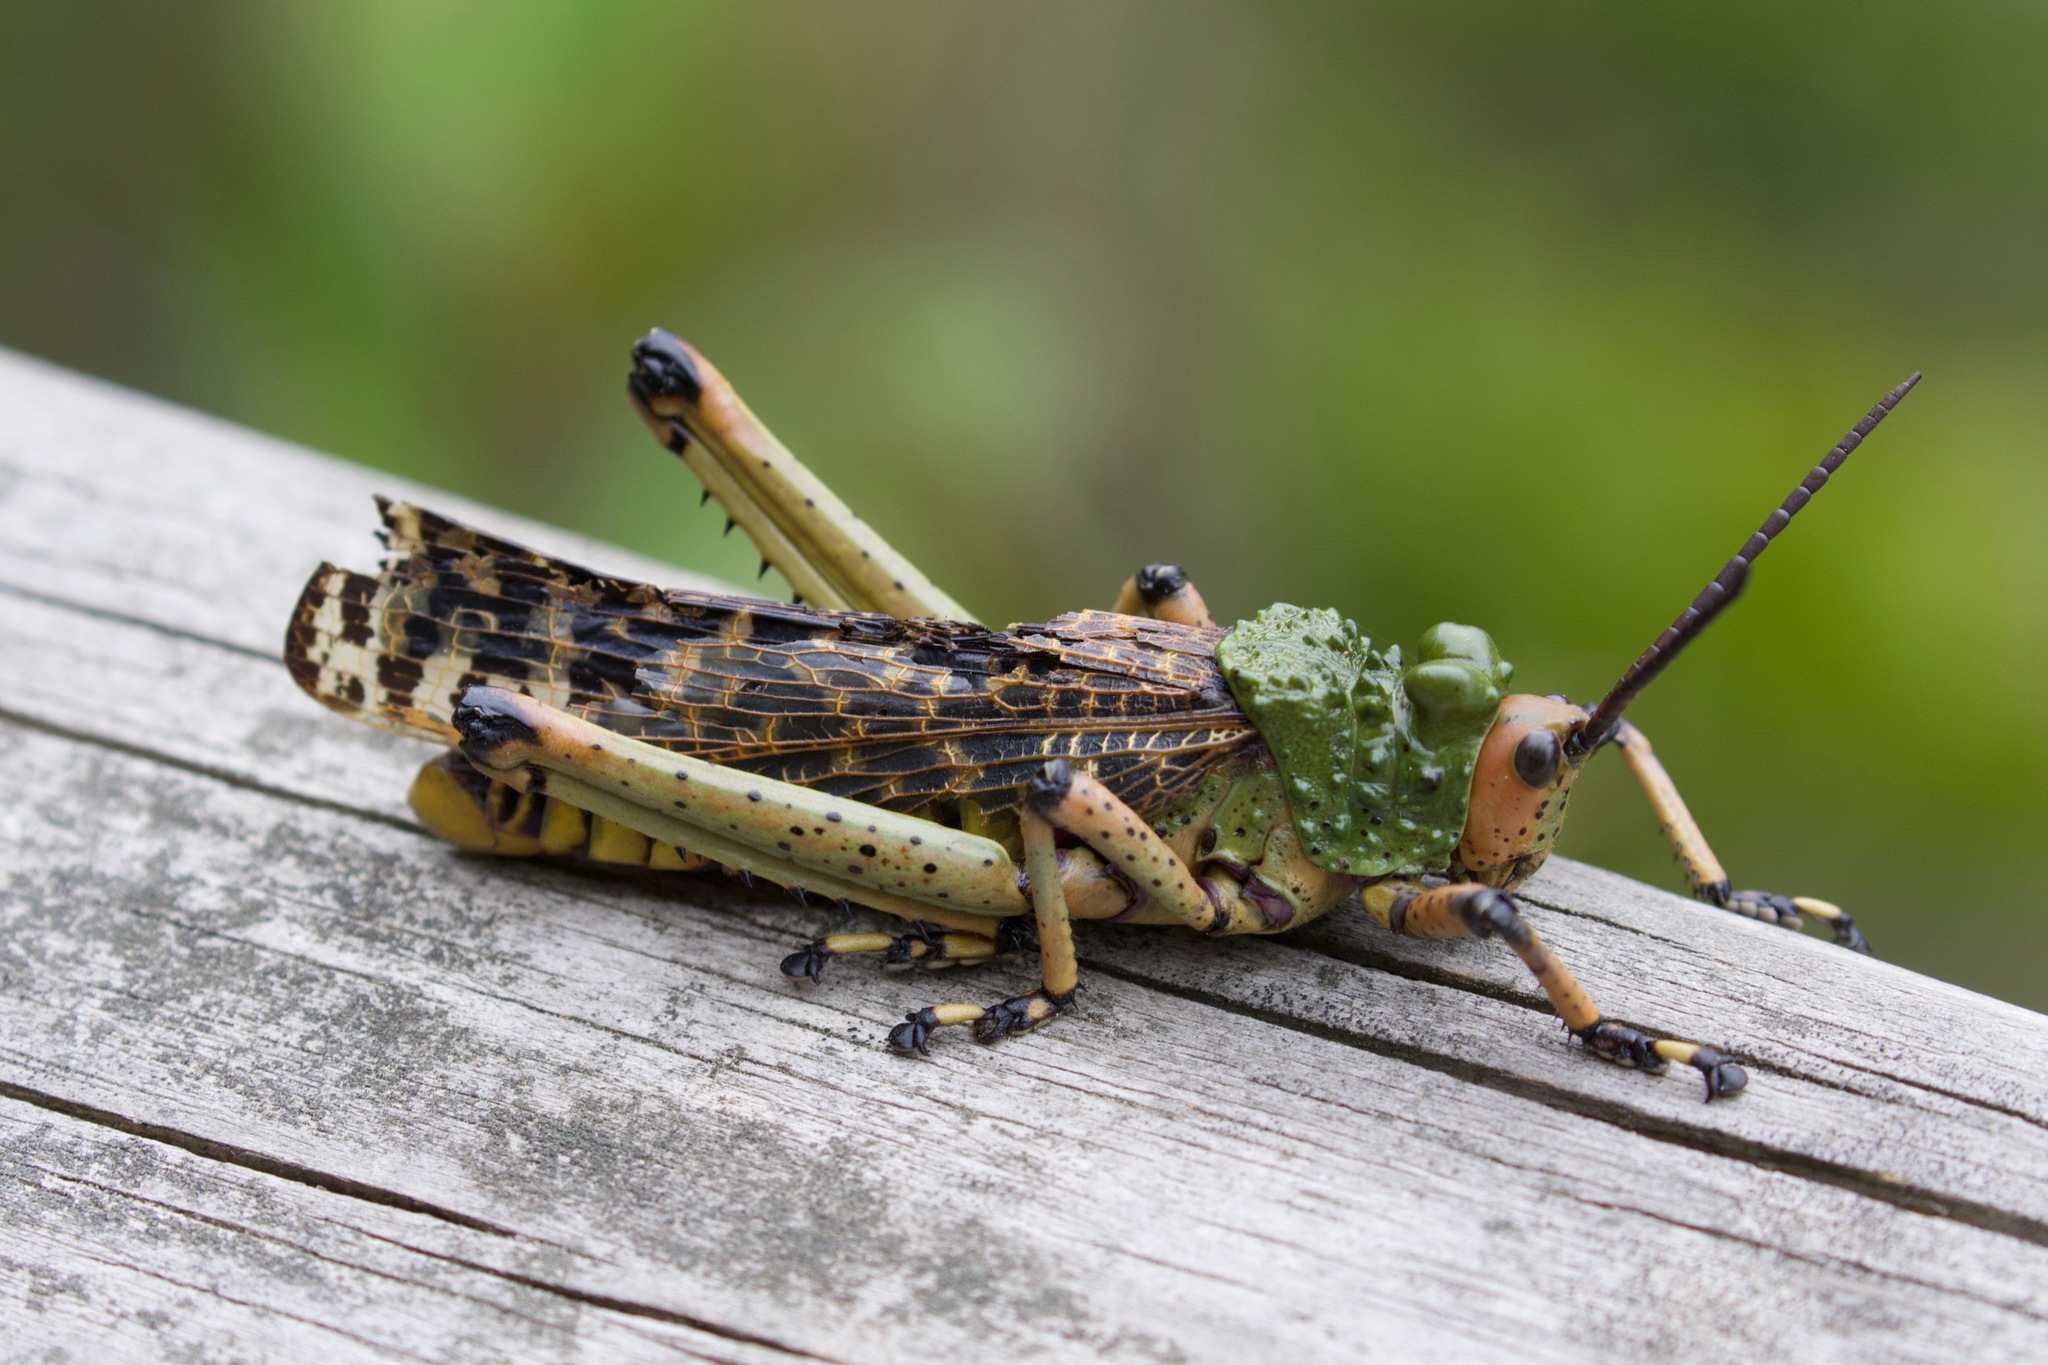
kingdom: Animalia
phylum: Arthropoda
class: Insecta
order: Orthoptera
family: Pyrgomorphidae
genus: Phymateus
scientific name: Phymateus leprosus
